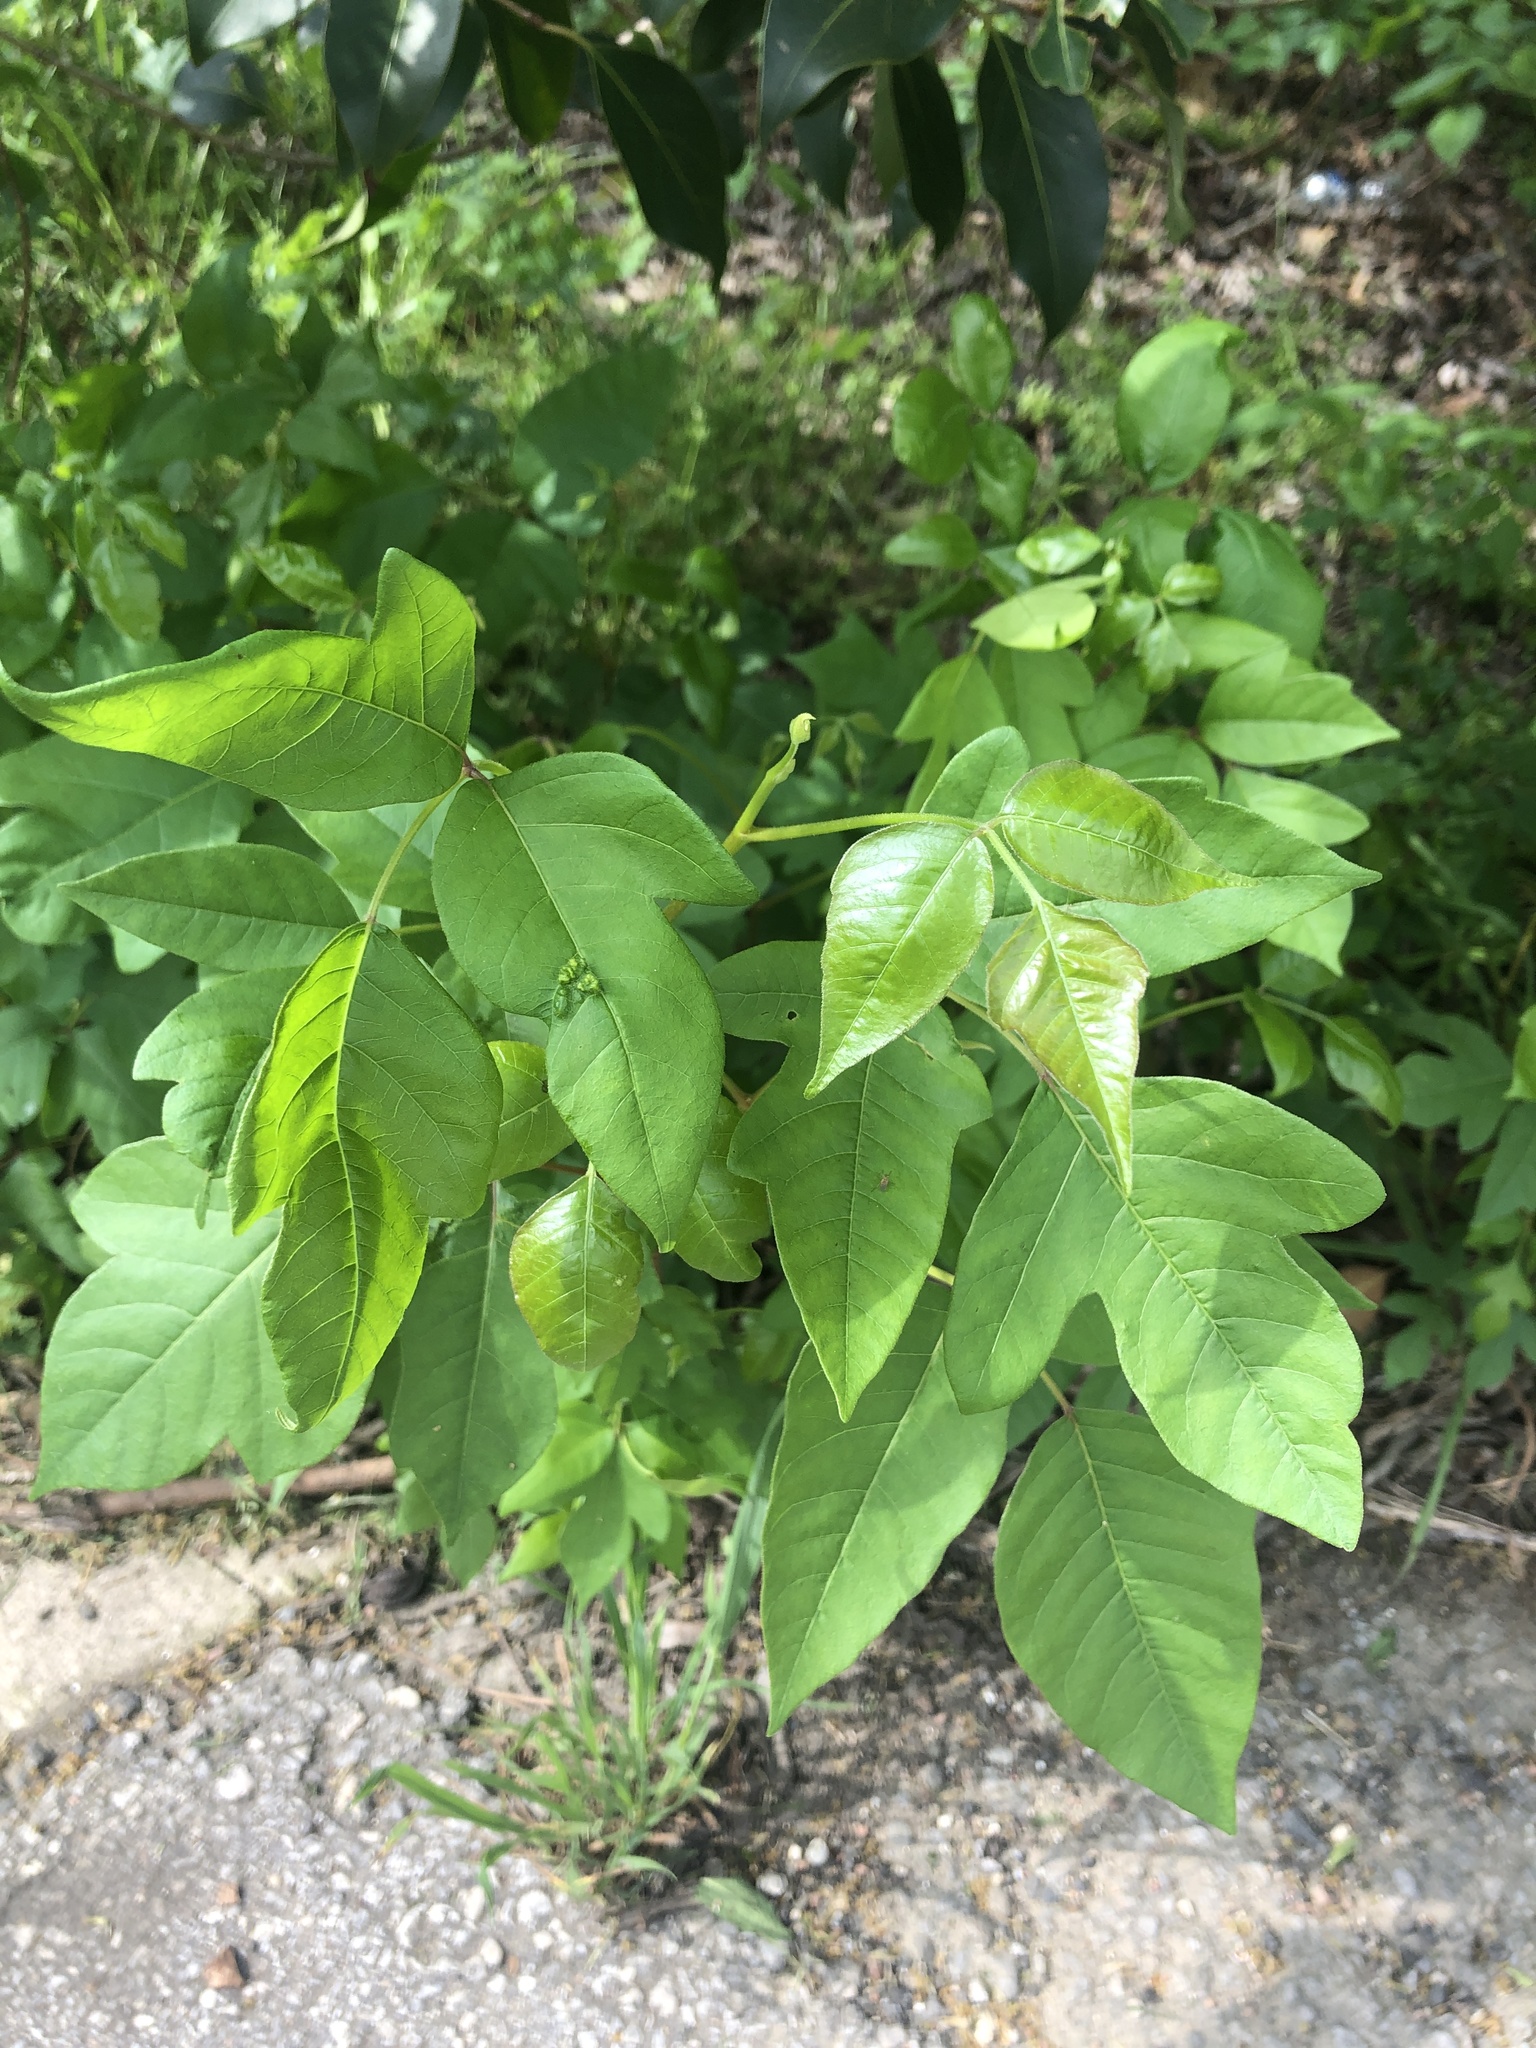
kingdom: Plantae
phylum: Tracheophyta
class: Magnoliopsida
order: Sapindales
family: Anacardiaceae
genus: Toxicodendron
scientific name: Toxicodendron radicans
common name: Poison ivy
